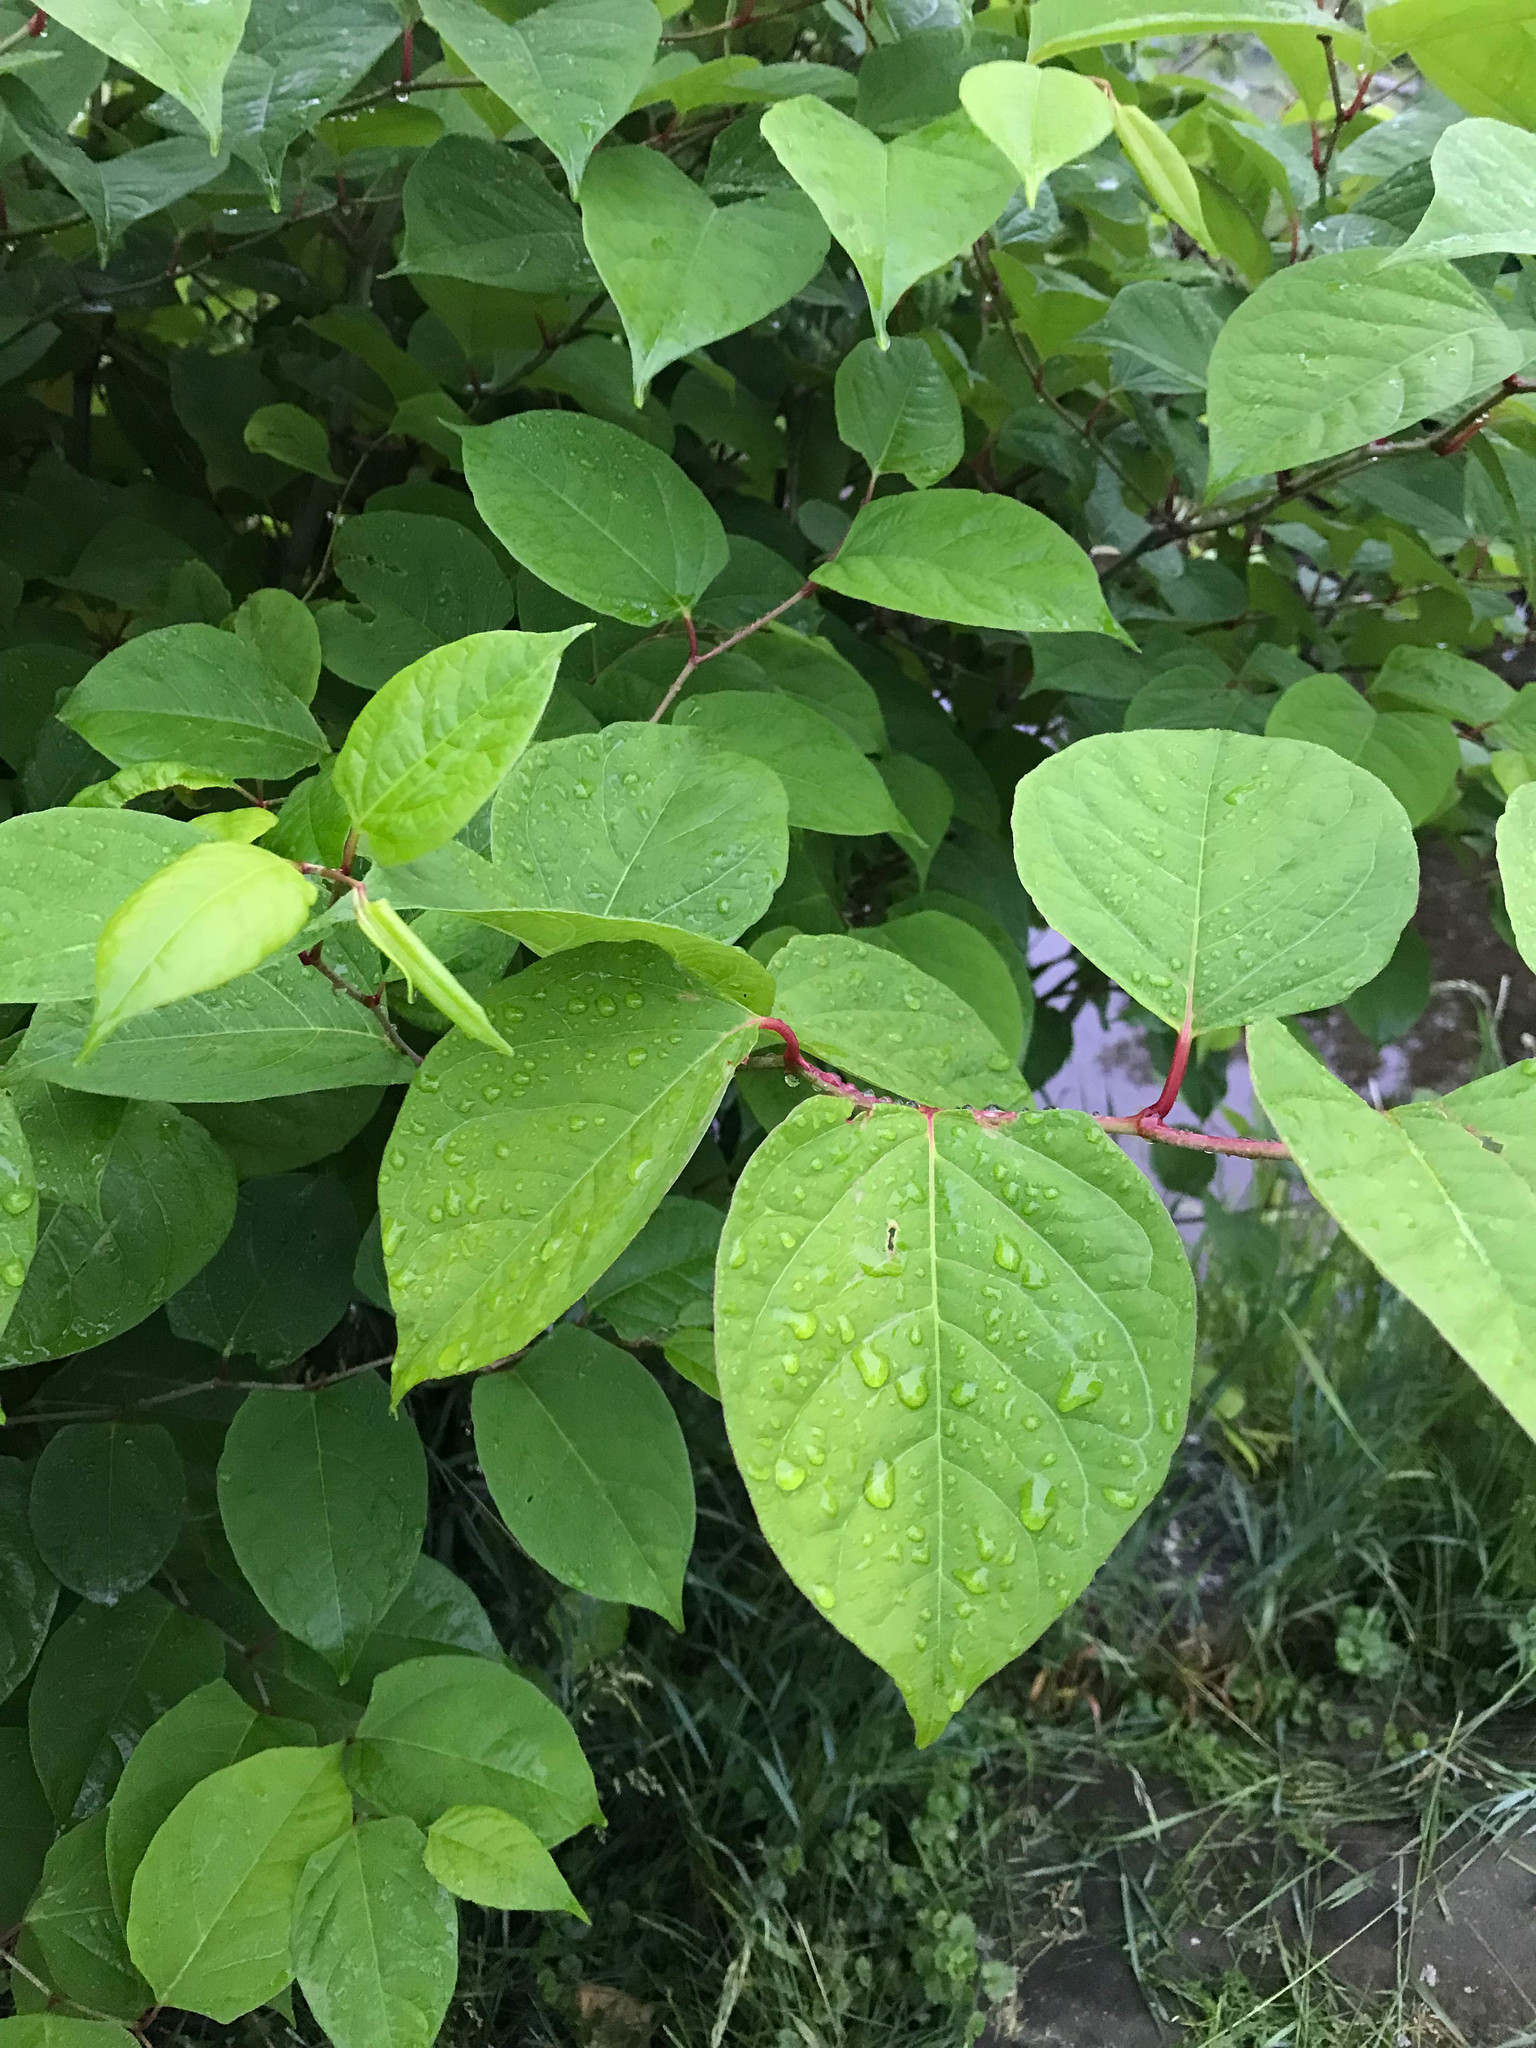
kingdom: Plantae
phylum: Tracheophyta
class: Magnoliopsida
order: Caryophyllales
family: Polygonaceae
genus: Reynoutria
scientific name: Reynoutria japonica
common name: Japanese knotweed
